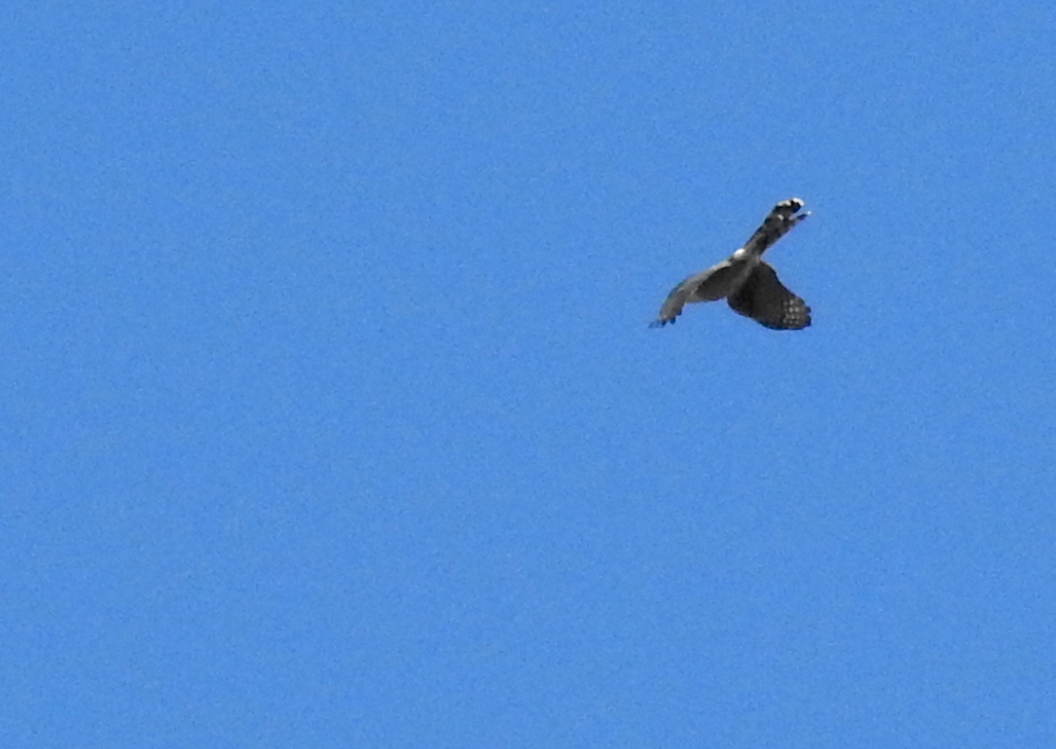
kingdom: Animalia
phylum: Chordata
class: Aves
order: Accipitriformes
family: Accipitridae
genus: Accipiter
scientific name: Accipiter cooperii
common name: Cooper's hawk
